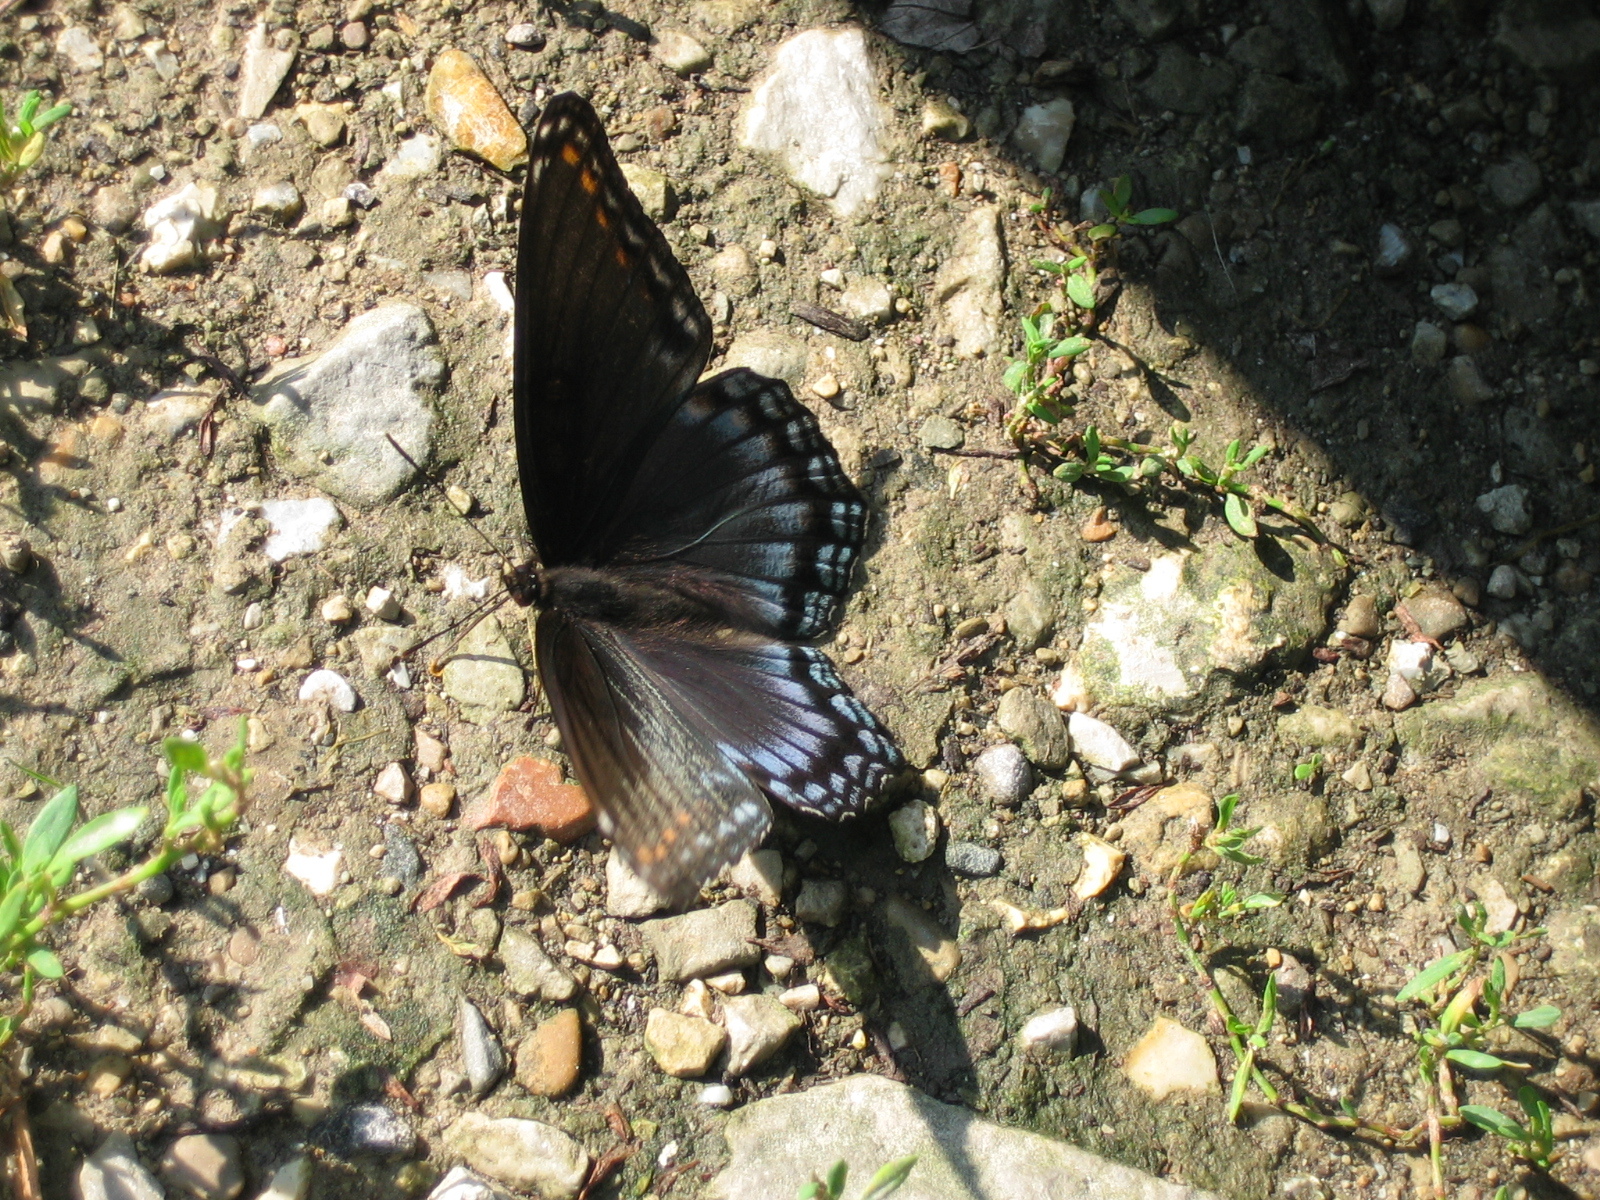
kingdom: Animalia
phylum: Arthropoda
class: Insecta
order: Lepidoptera
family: Nymphalidae
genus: Limenitis
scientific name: Limenitis arthemis
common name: Red-spotted admiral
